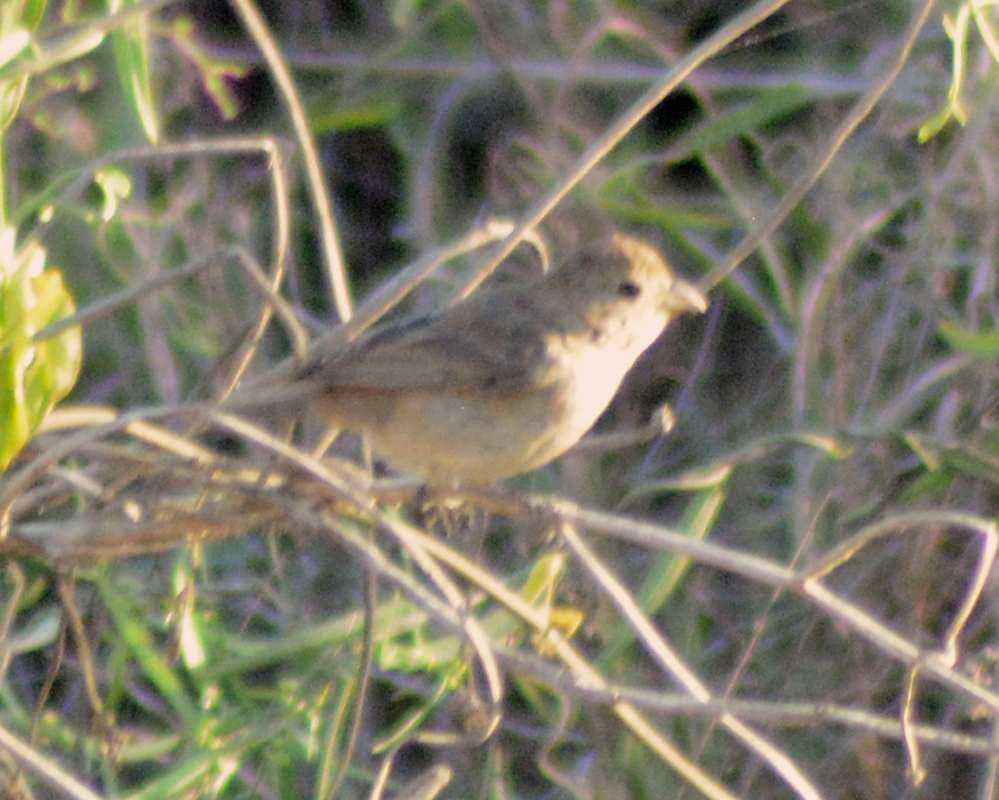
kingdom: Animalia
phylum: Chordata
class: Aves
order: Passeriformes
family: Thraupidae
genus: Sporophila
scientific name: Sporophila torqueola
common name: White-collared seedeater
